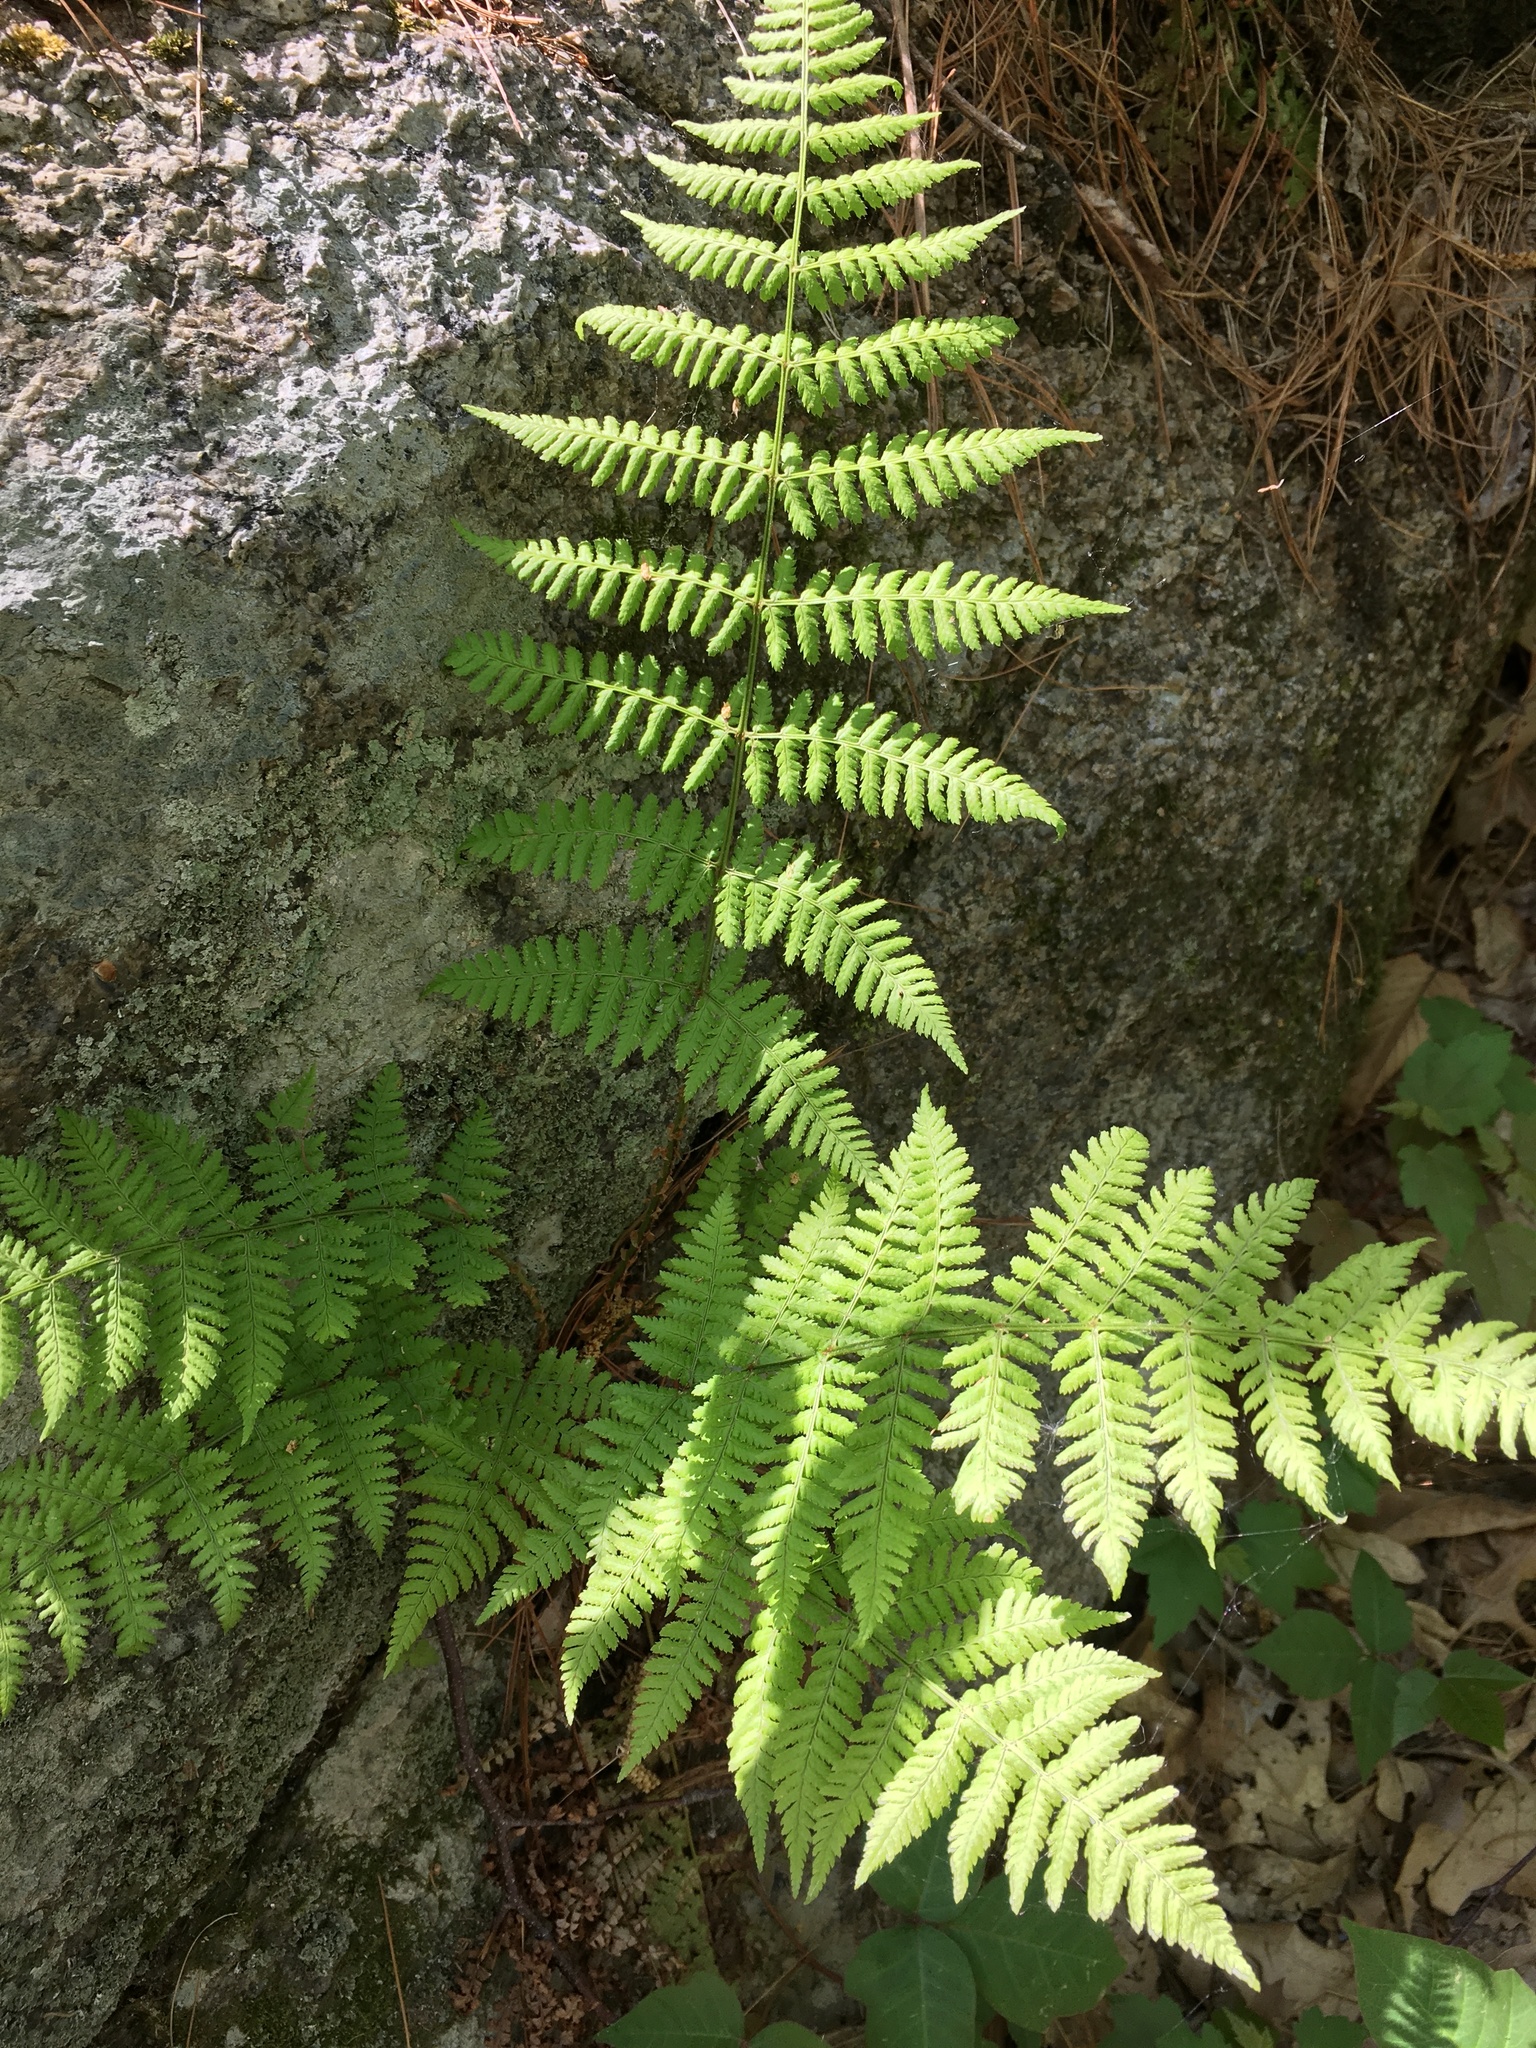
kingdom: Plantae
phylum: Tracheophyta
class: Polypodiopsida
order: Polypodiales
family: Dryopteridaceae
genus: Dryopteris
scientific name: Dryopteris intermedia
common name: Evergreen wood fern
